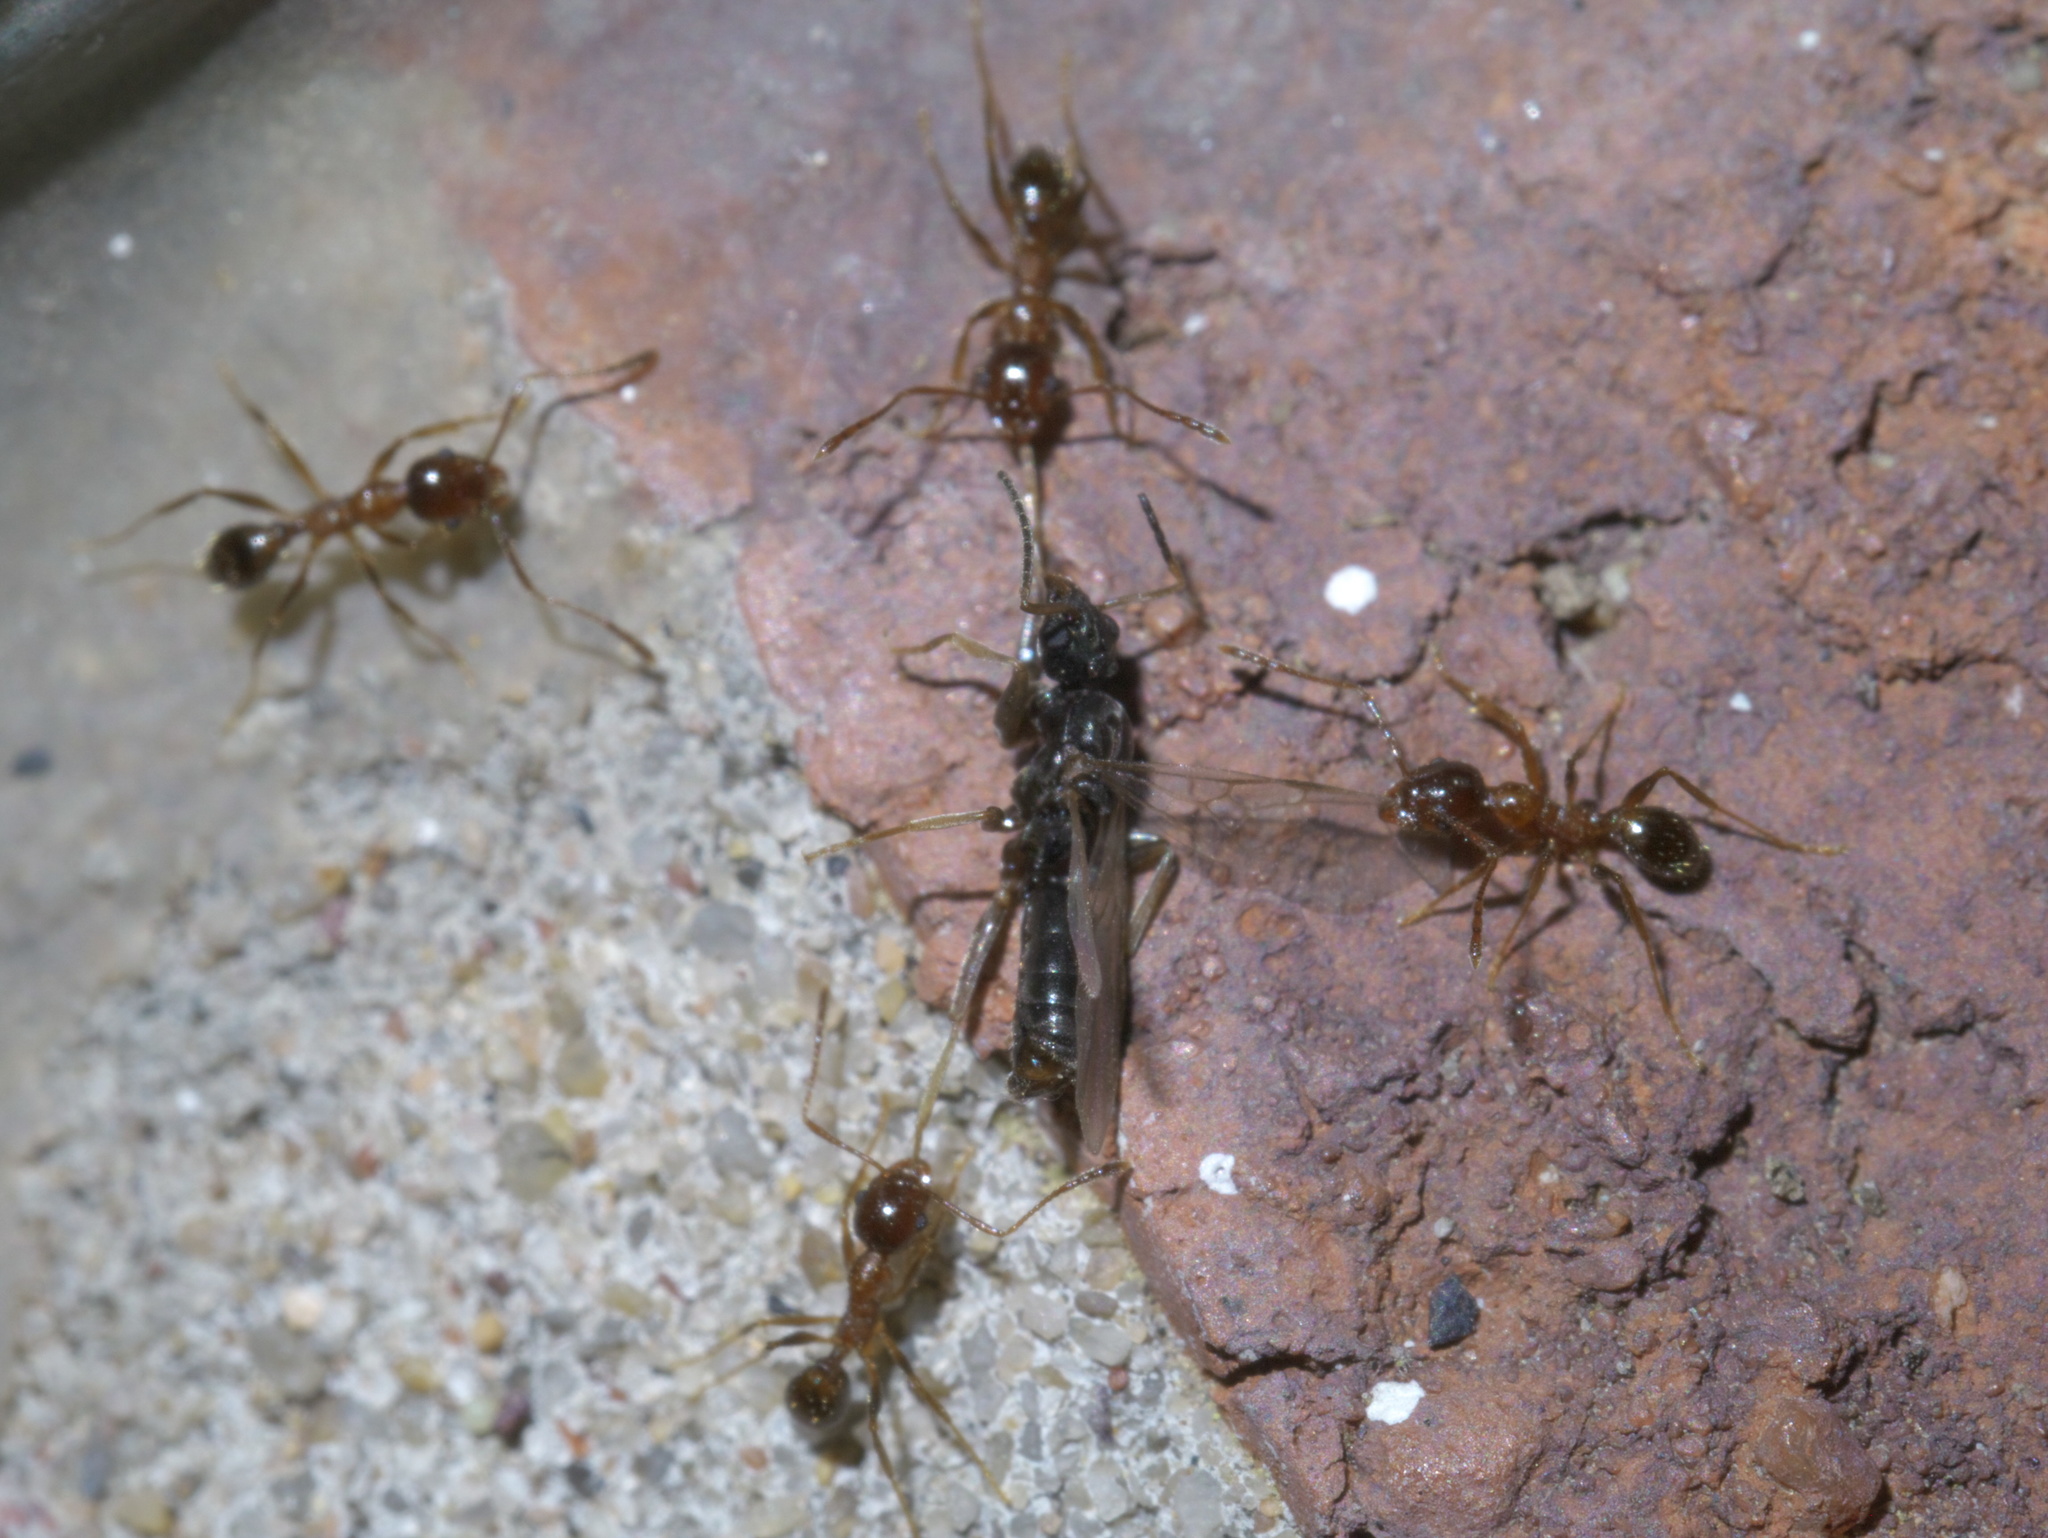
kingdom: Animalia
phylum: Arthropoda
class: Insecta
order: Hymenoptera
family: Formicidae
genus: Pheidole
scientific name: Pheidole dentata
